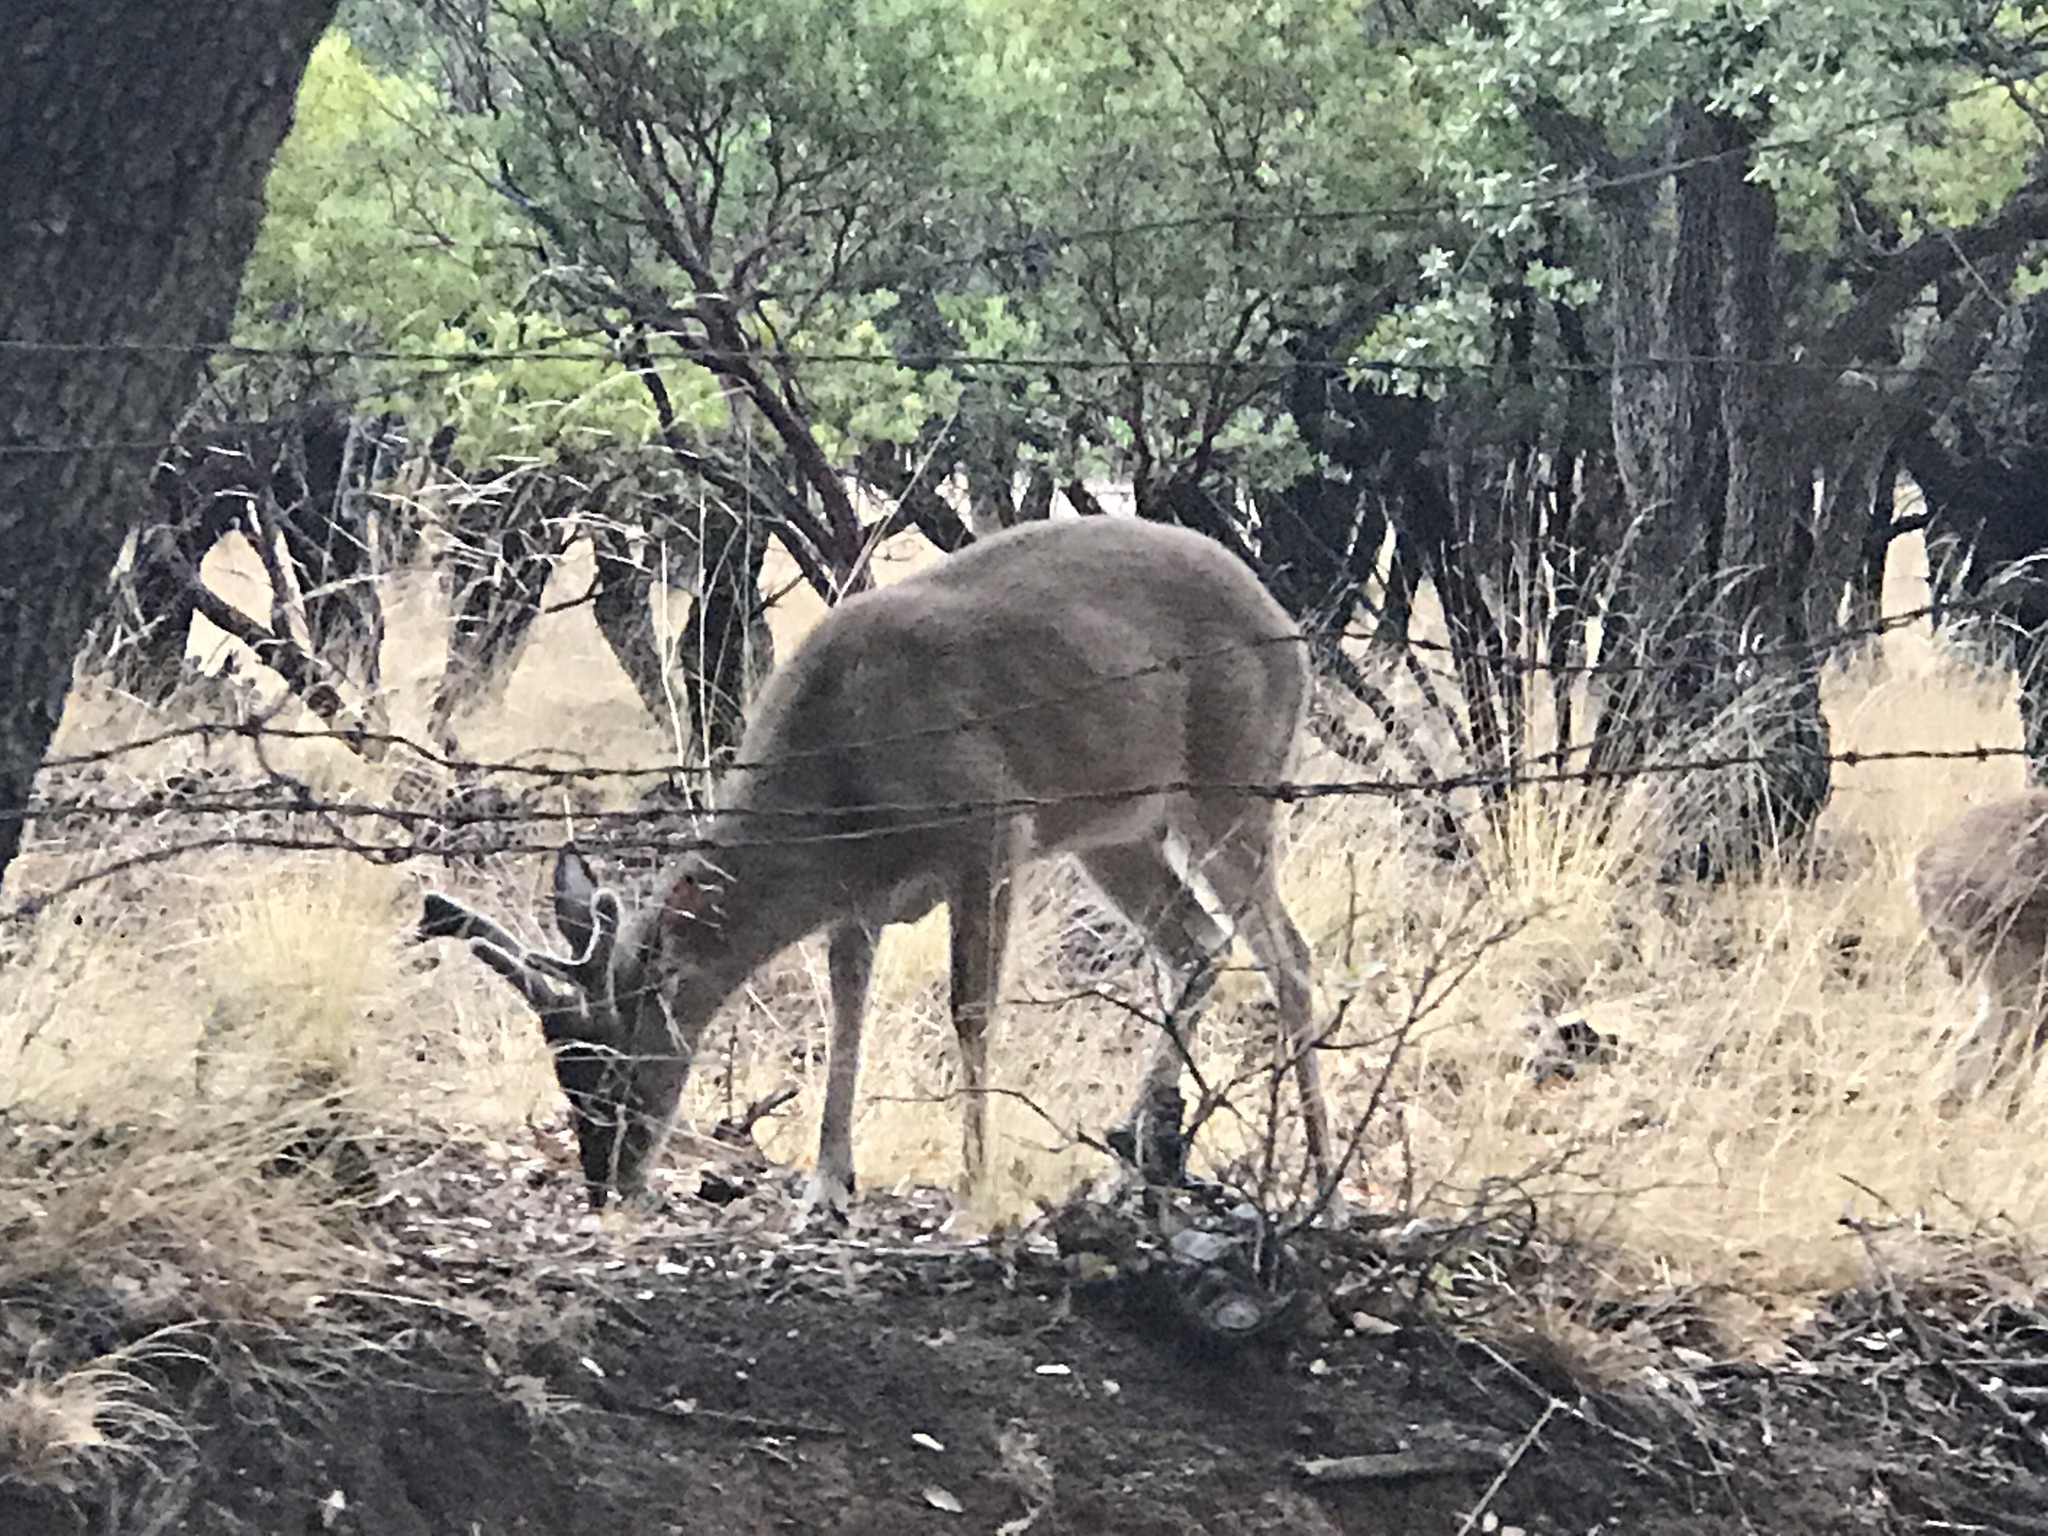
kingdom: Animalia
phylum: Chordata
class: Mammalia
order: Artiodactyla
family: Cervidae
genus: Odocoileus
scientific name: Odocoileus virginianus
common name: White-tailed deer
